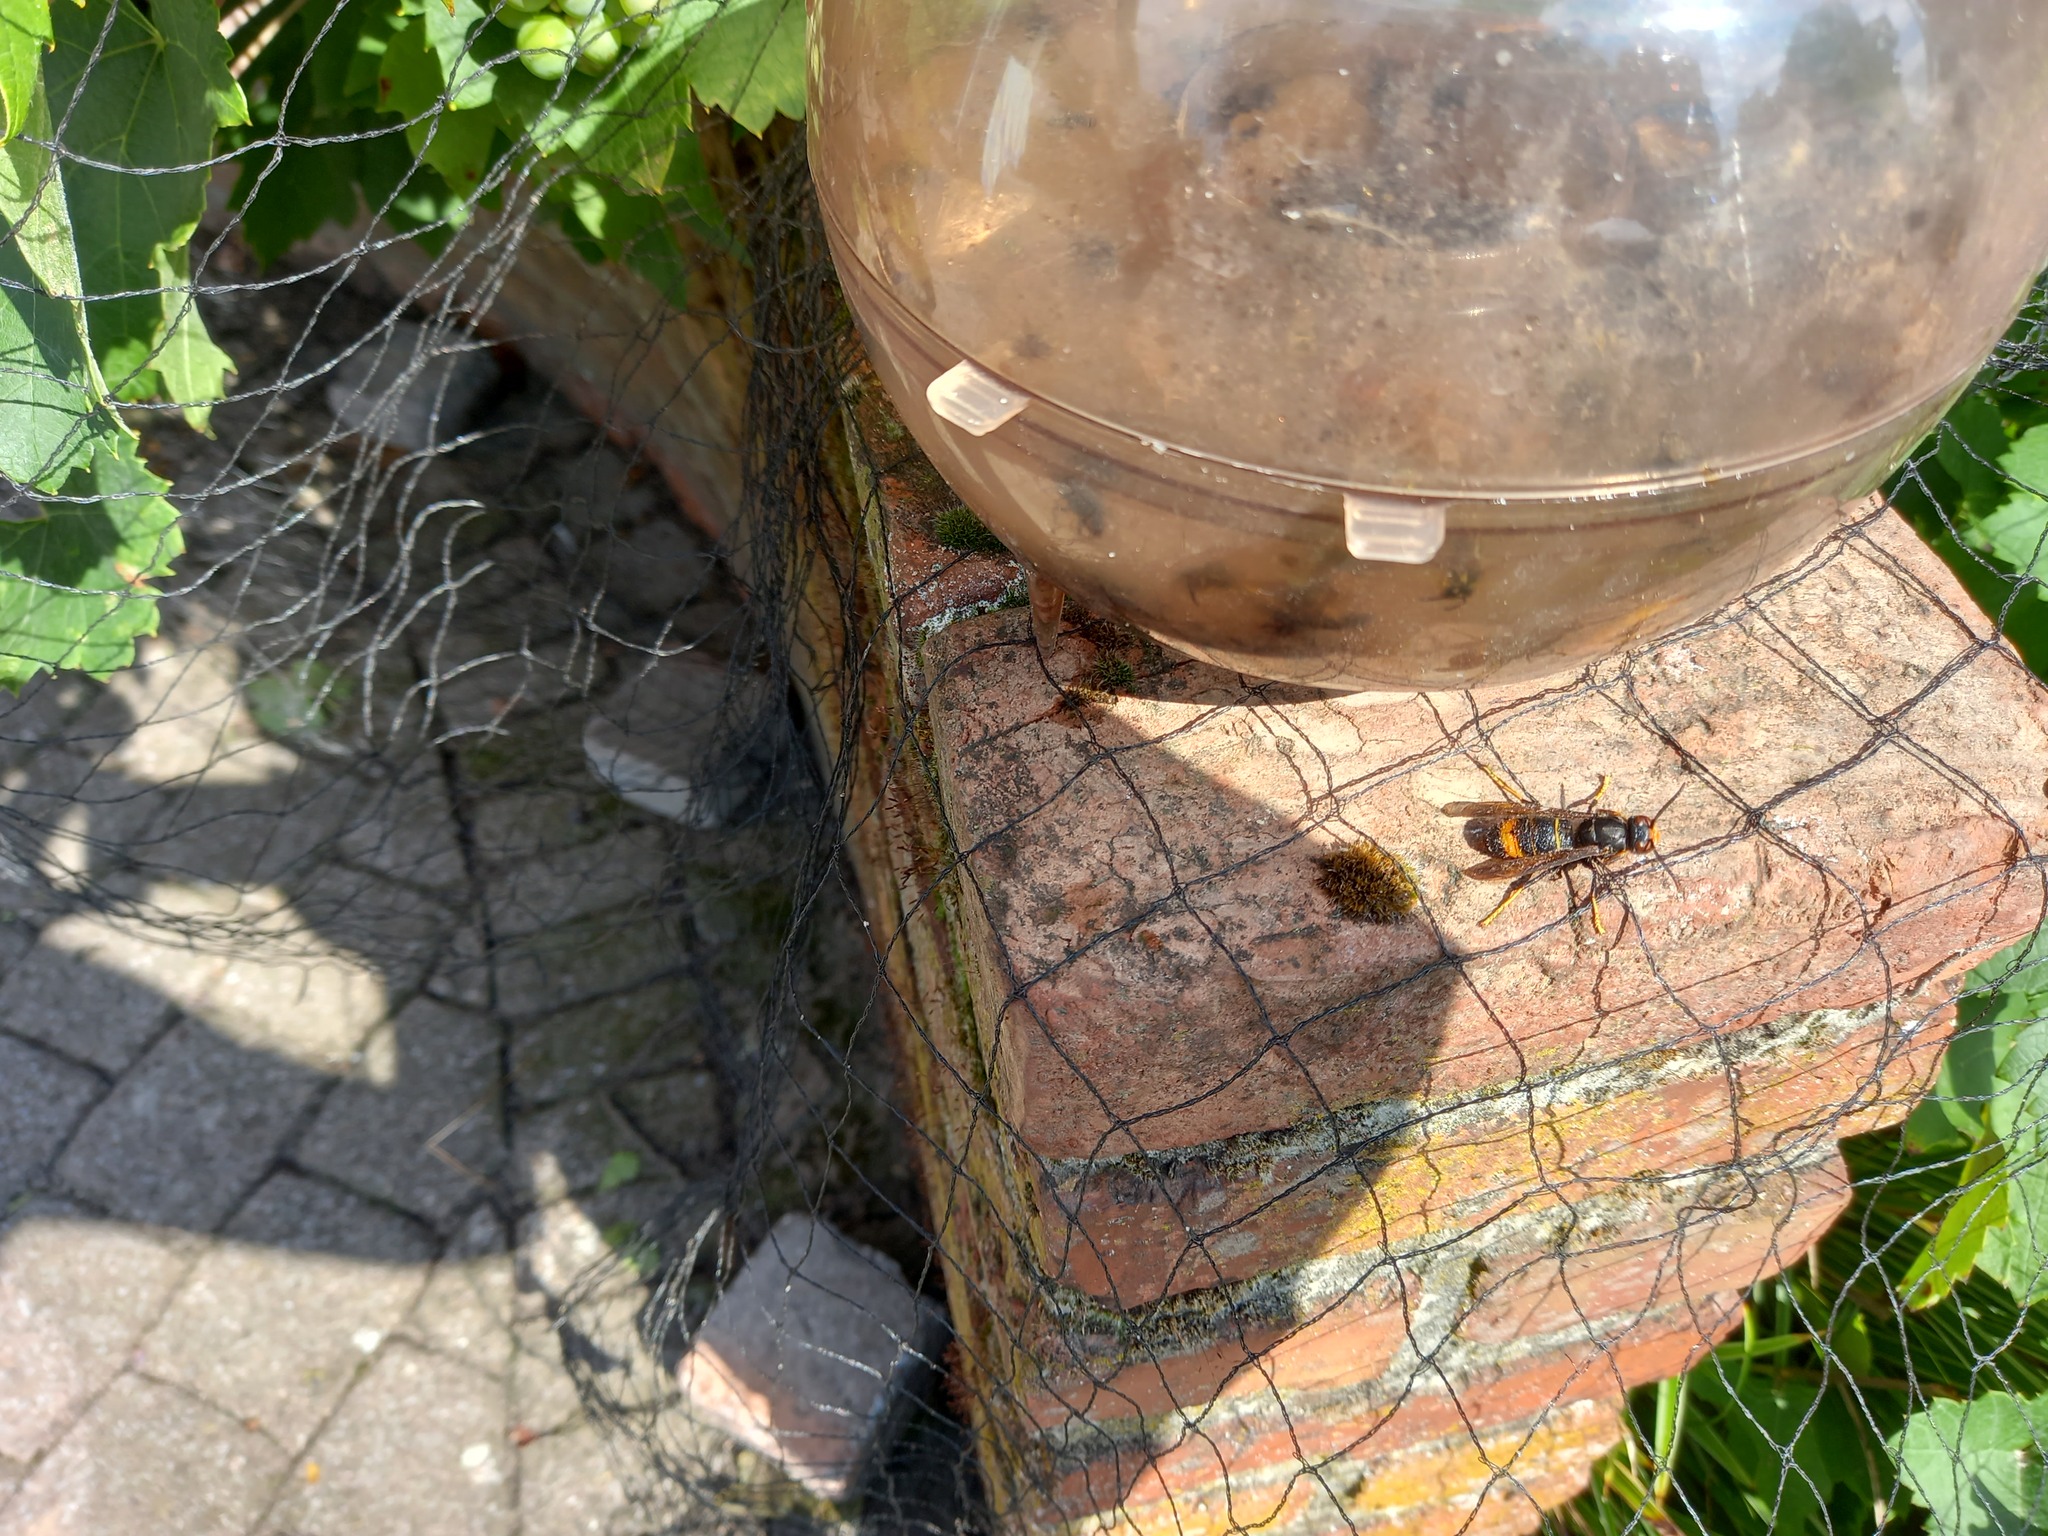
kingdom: Animalia
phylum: Arthropoda
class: Insecta
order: Hymenoptera
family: Vespidae
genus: Vespa
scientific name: Vespa velutina
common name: Asian hornet
